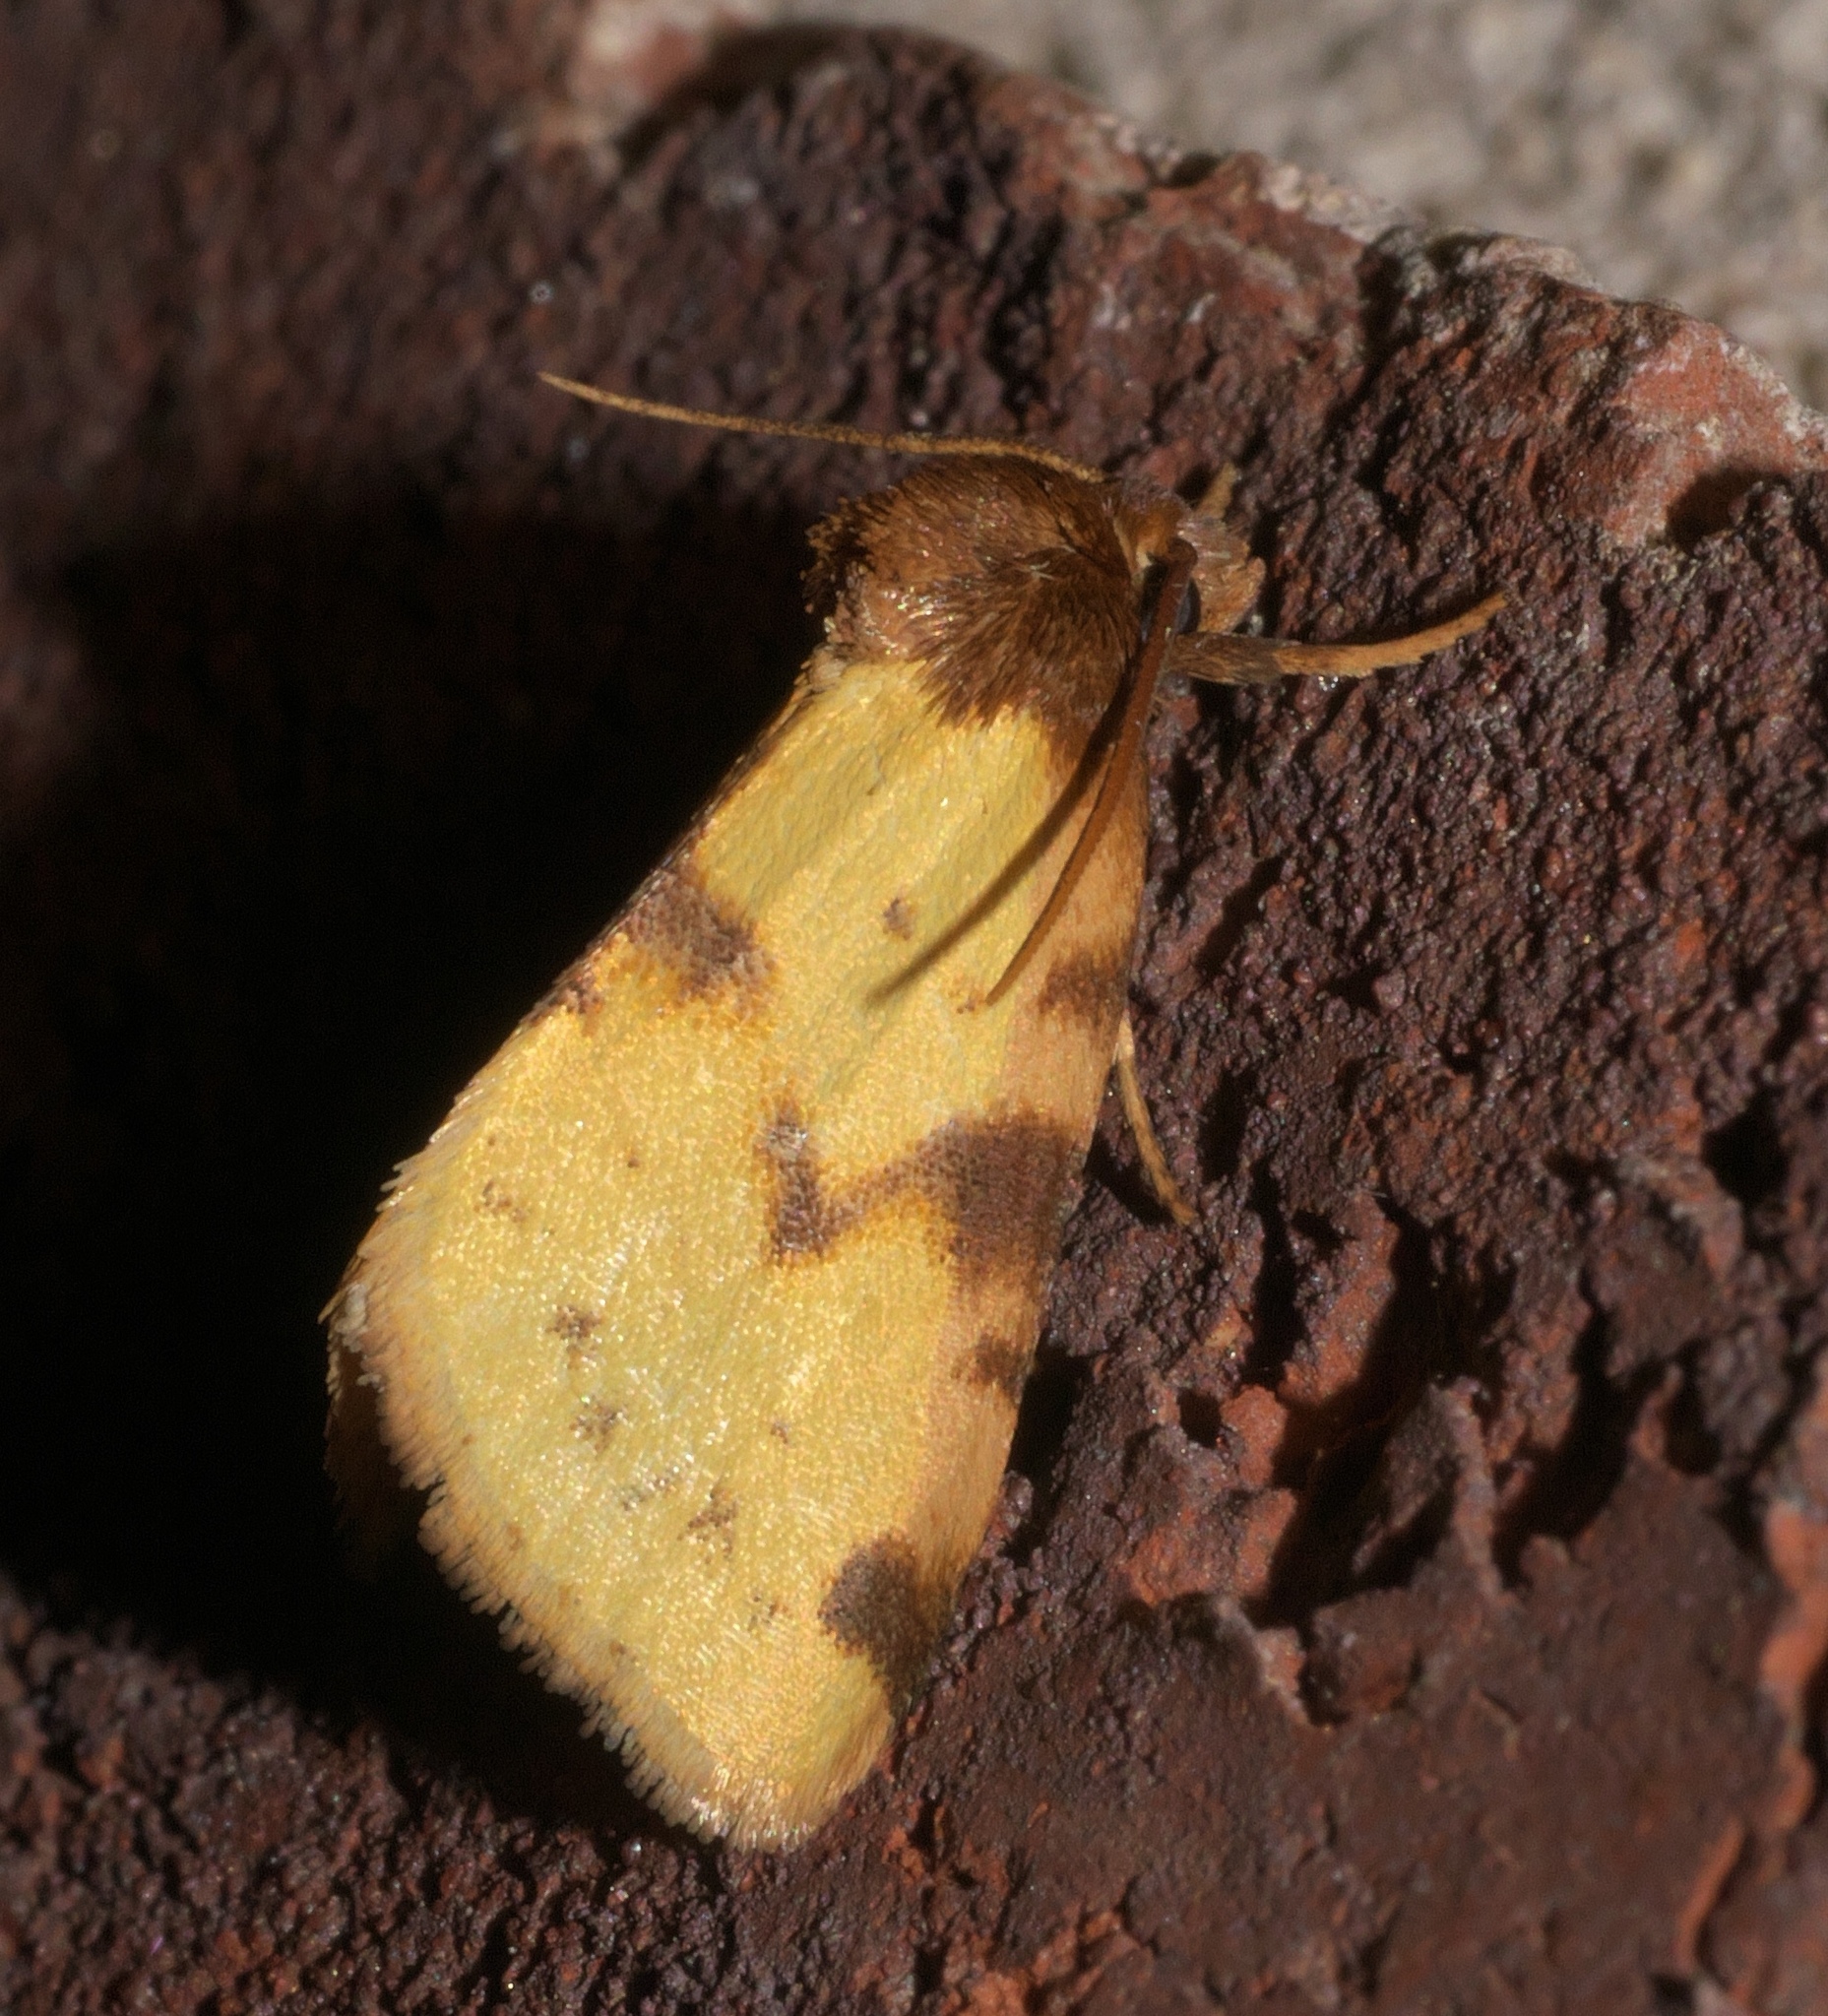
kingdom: Animalia
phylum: Arthropoda
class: Insecta
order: Lepidoptera
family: Noctuidae
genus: Azenia
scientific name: Azenia obtusa
